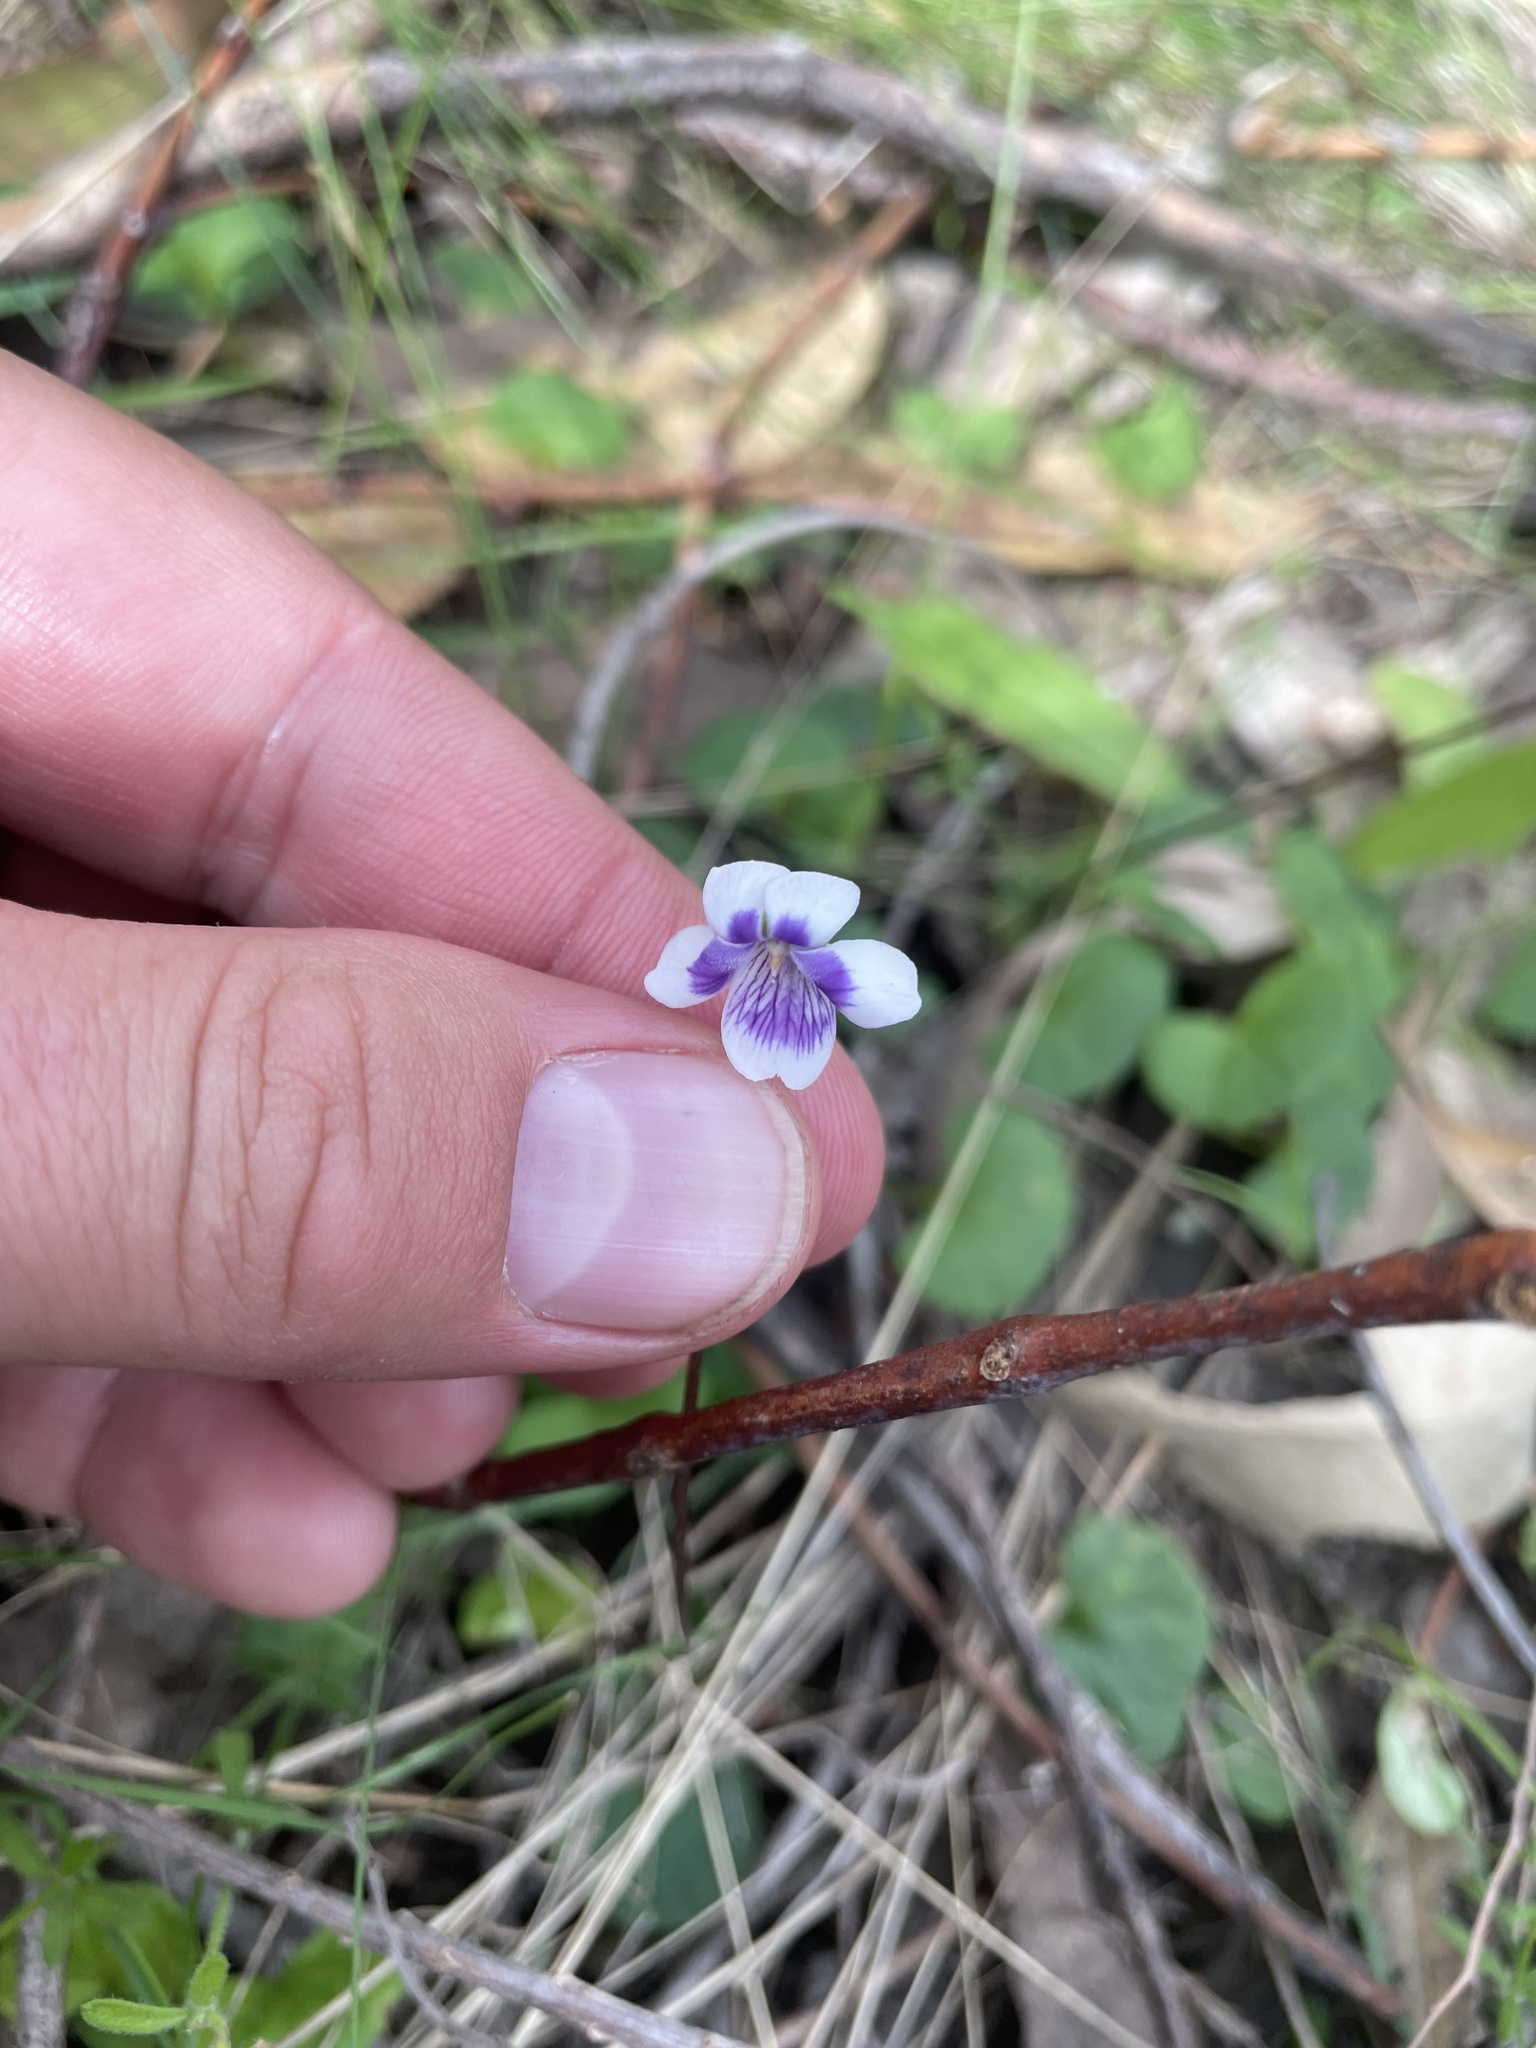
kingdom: Plantae
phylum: Tracheophyta
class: Magnoliopsida
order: Malpighiales
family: Violaceae
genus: Viola
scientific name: Viola hederacea
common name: Australian violet
